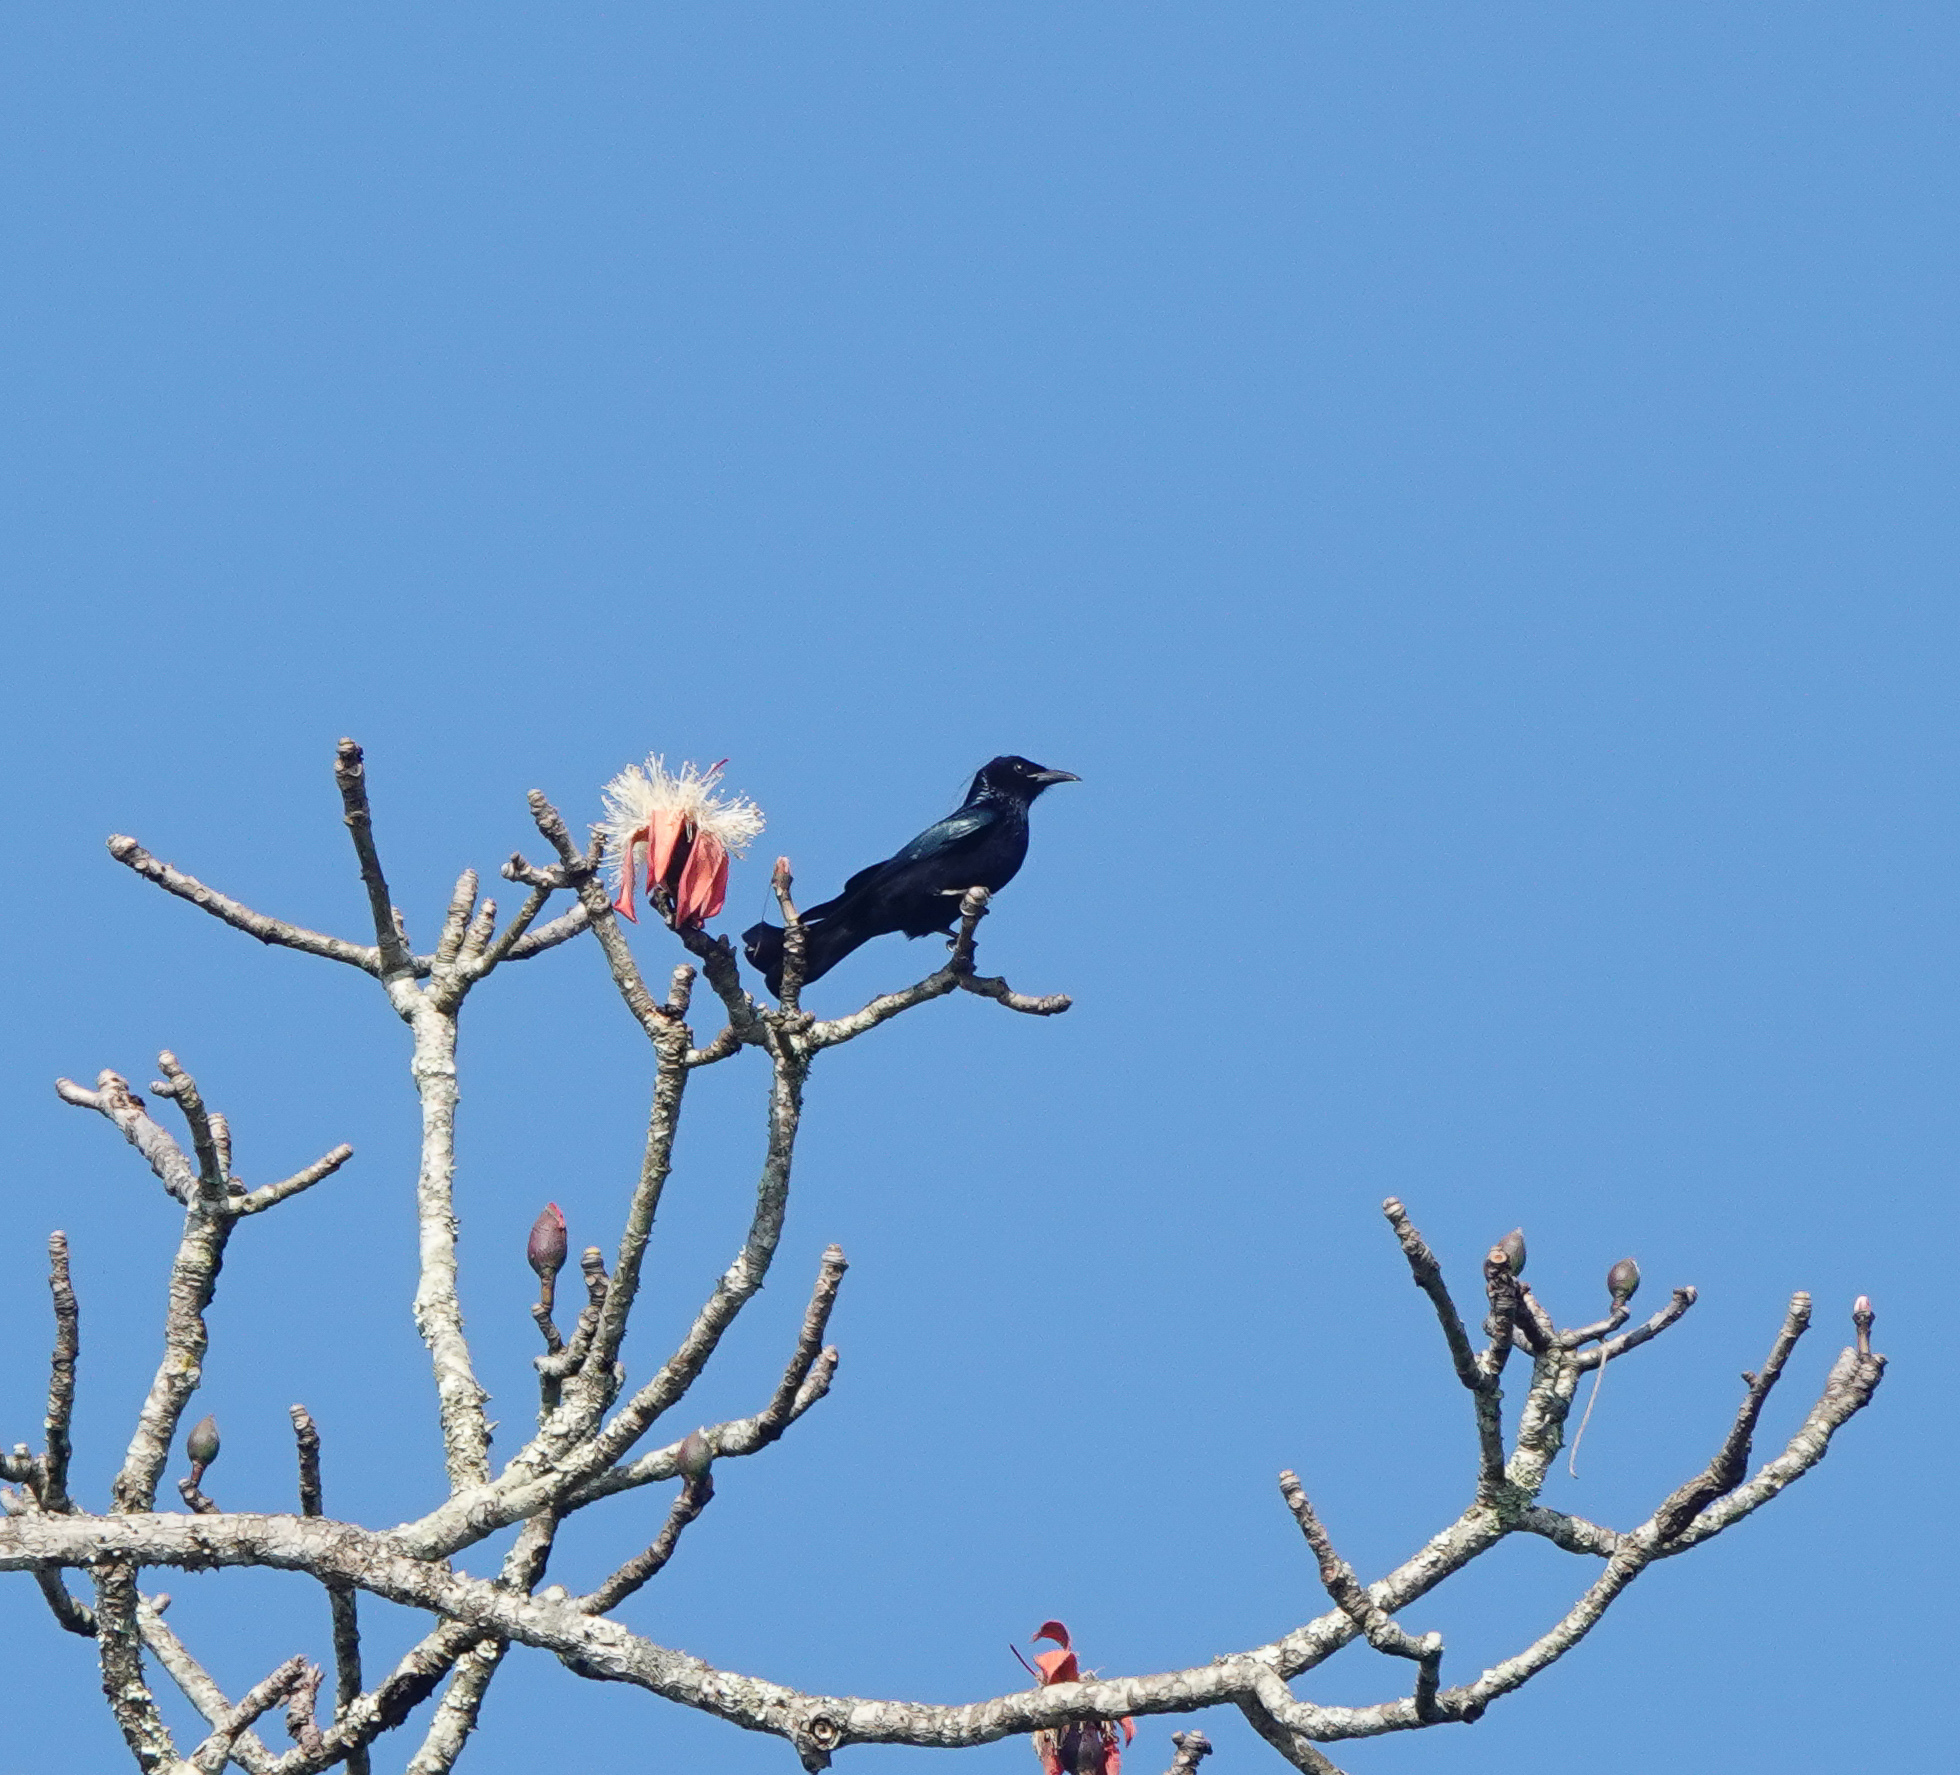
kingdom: Animalia
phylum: Chordata
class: Aves
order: Passeriformes
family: Dicruridae
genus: Dicrurus
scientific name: Dicrurus hottentottus
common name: Hair-crested drongo
